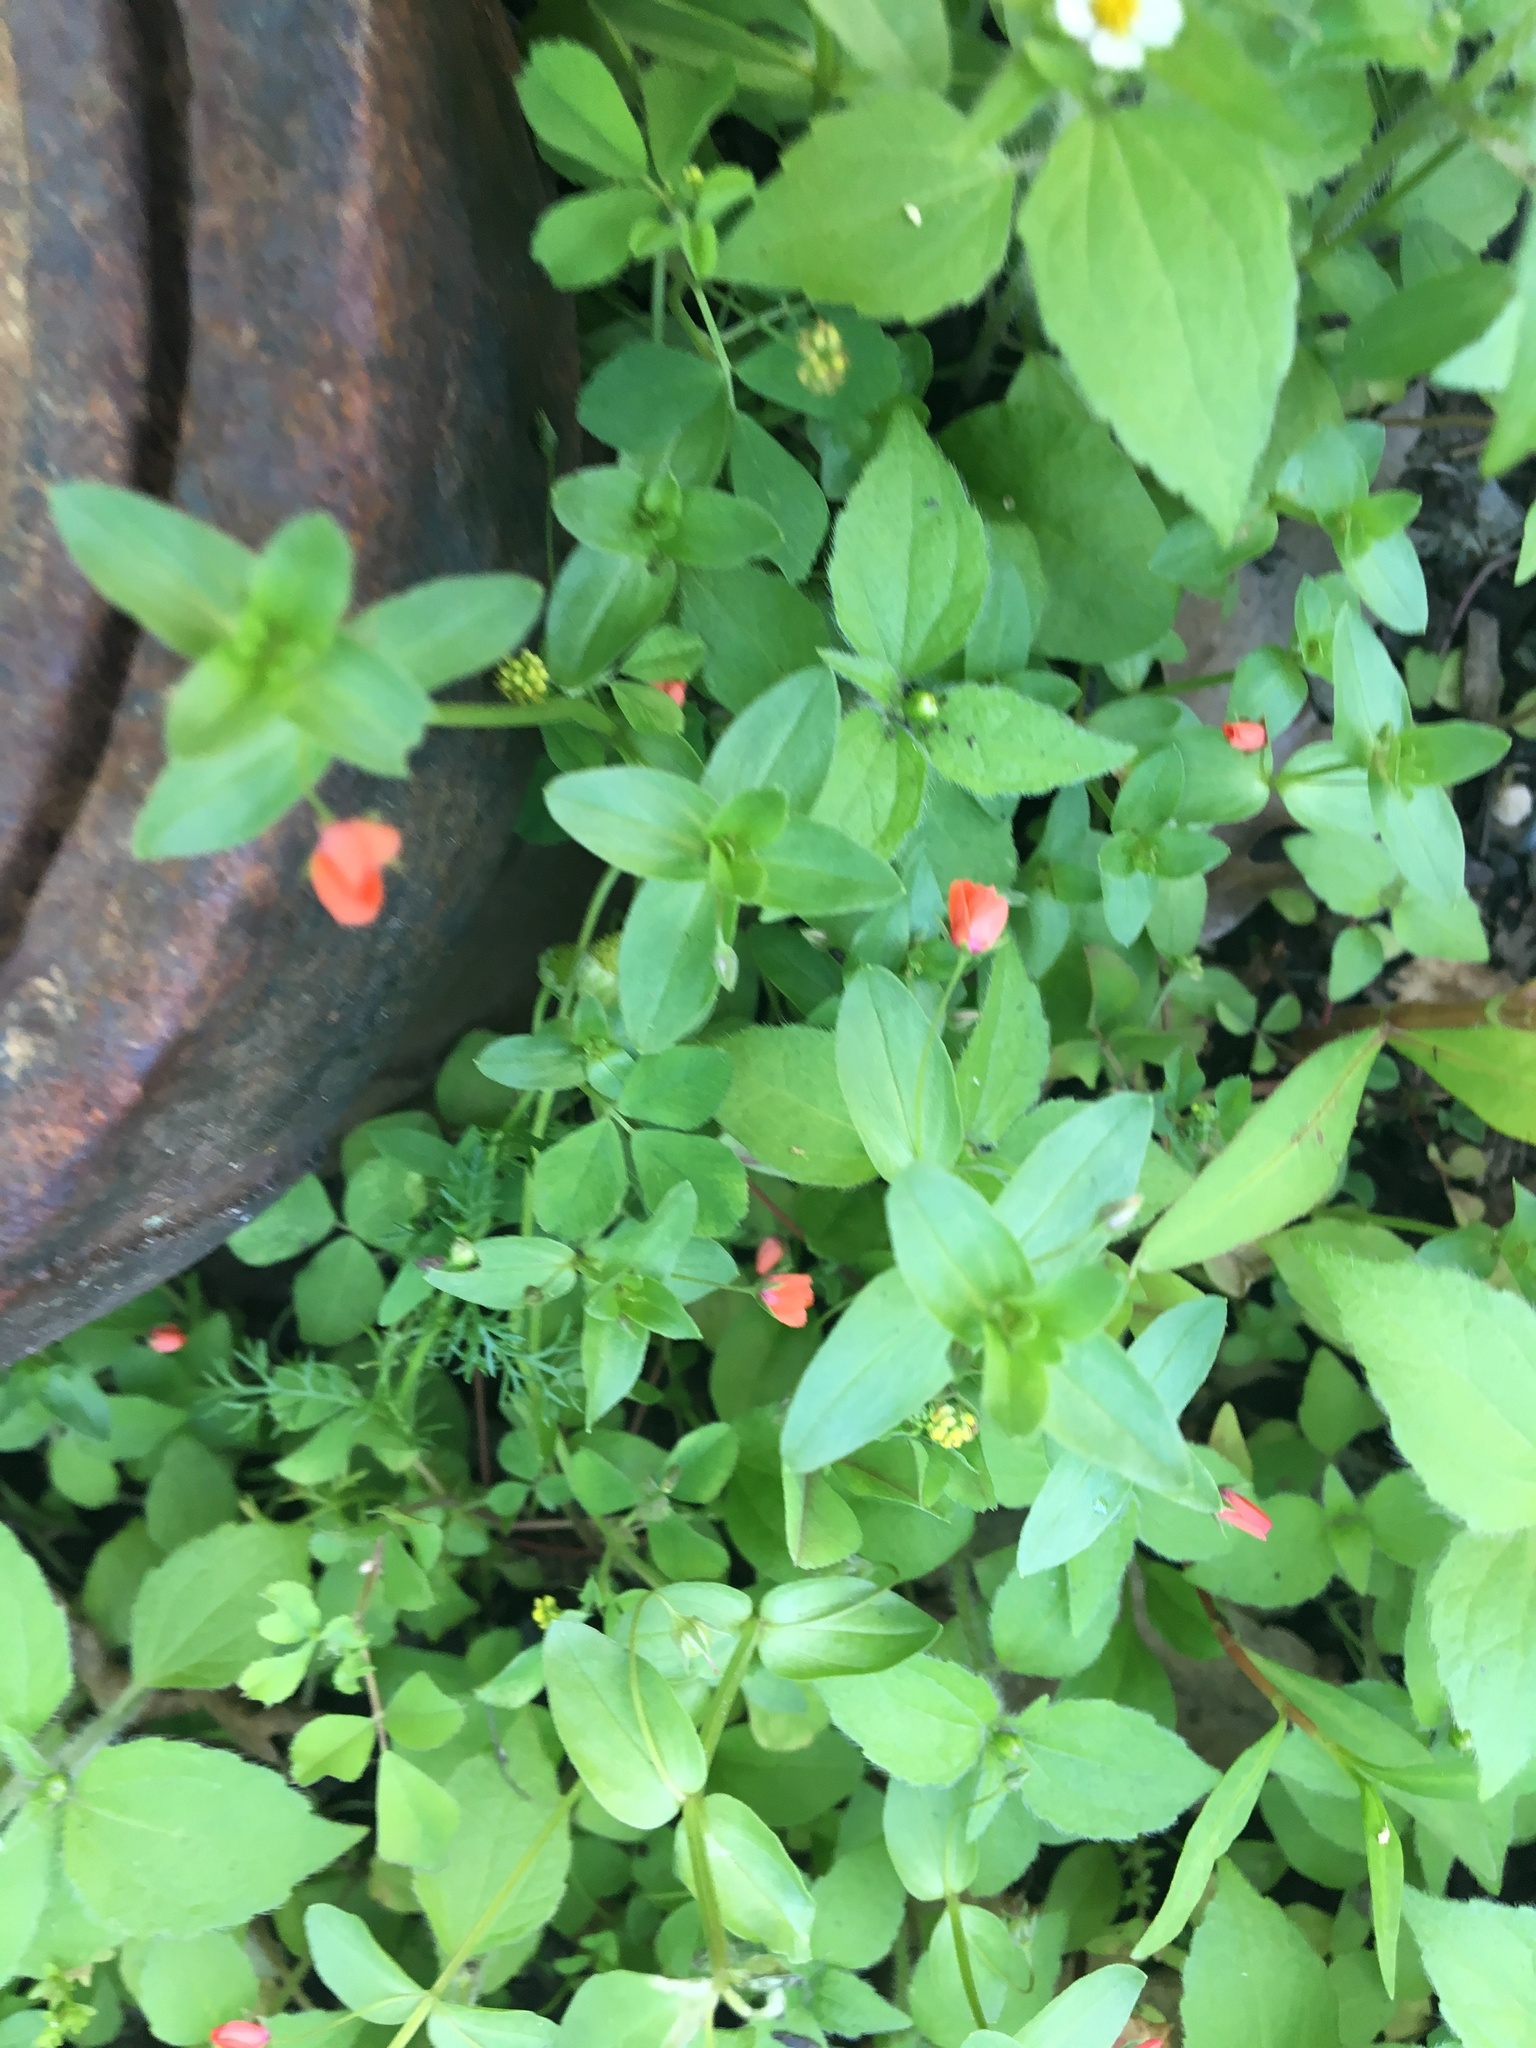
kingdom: Plantae
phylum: Tracheophyta
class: Magnoliopsida
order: Ericales
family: Primulaceae
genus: Lysimachia
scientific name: Lysimachia arvensis
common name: Scarlet pimpernel
